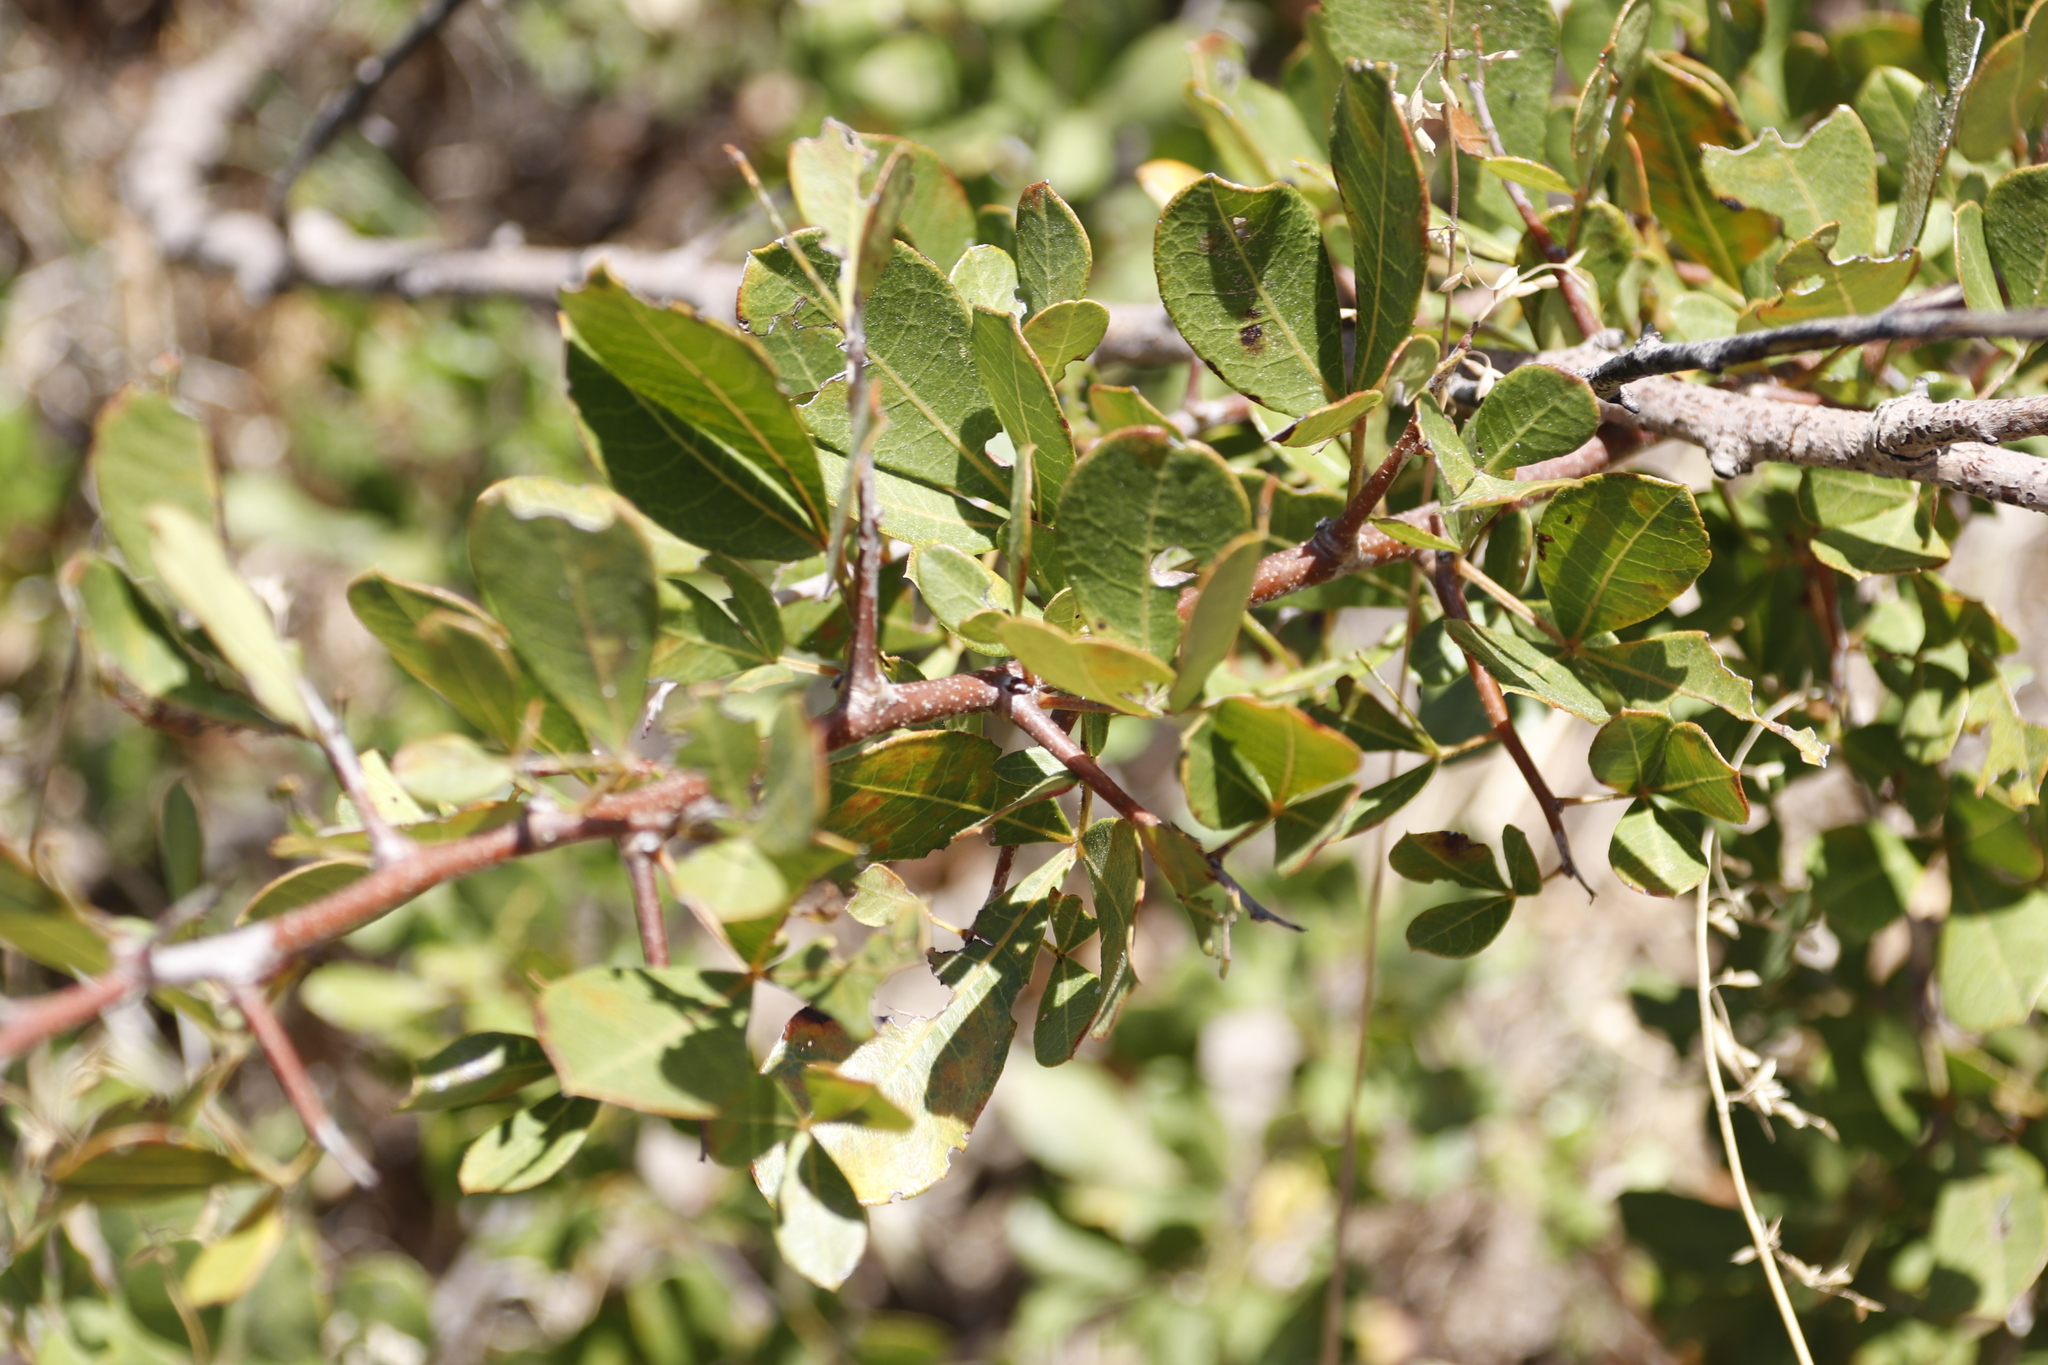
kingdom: Plantae
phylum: Tracheophyta
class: Magnoliopsida
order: Sapindales
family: Anacardiaceae
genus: Searsia
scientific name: Searsia laevigata
